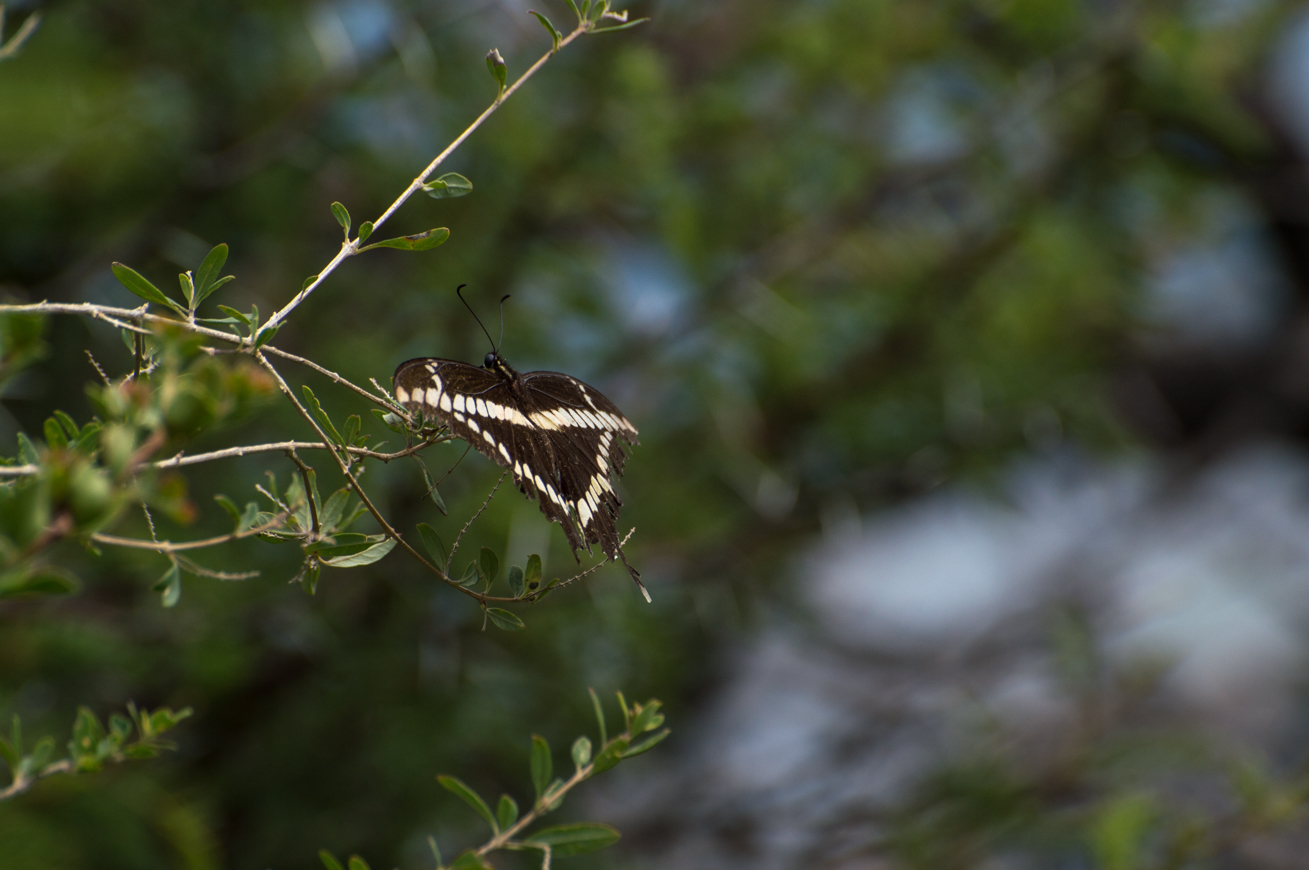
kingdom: Animalia
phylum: Arthropoda
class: Insecta
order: Lepidoptera
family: Papilionidae
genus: Papilio
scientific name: Papilio thoas
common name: King swallowtail
